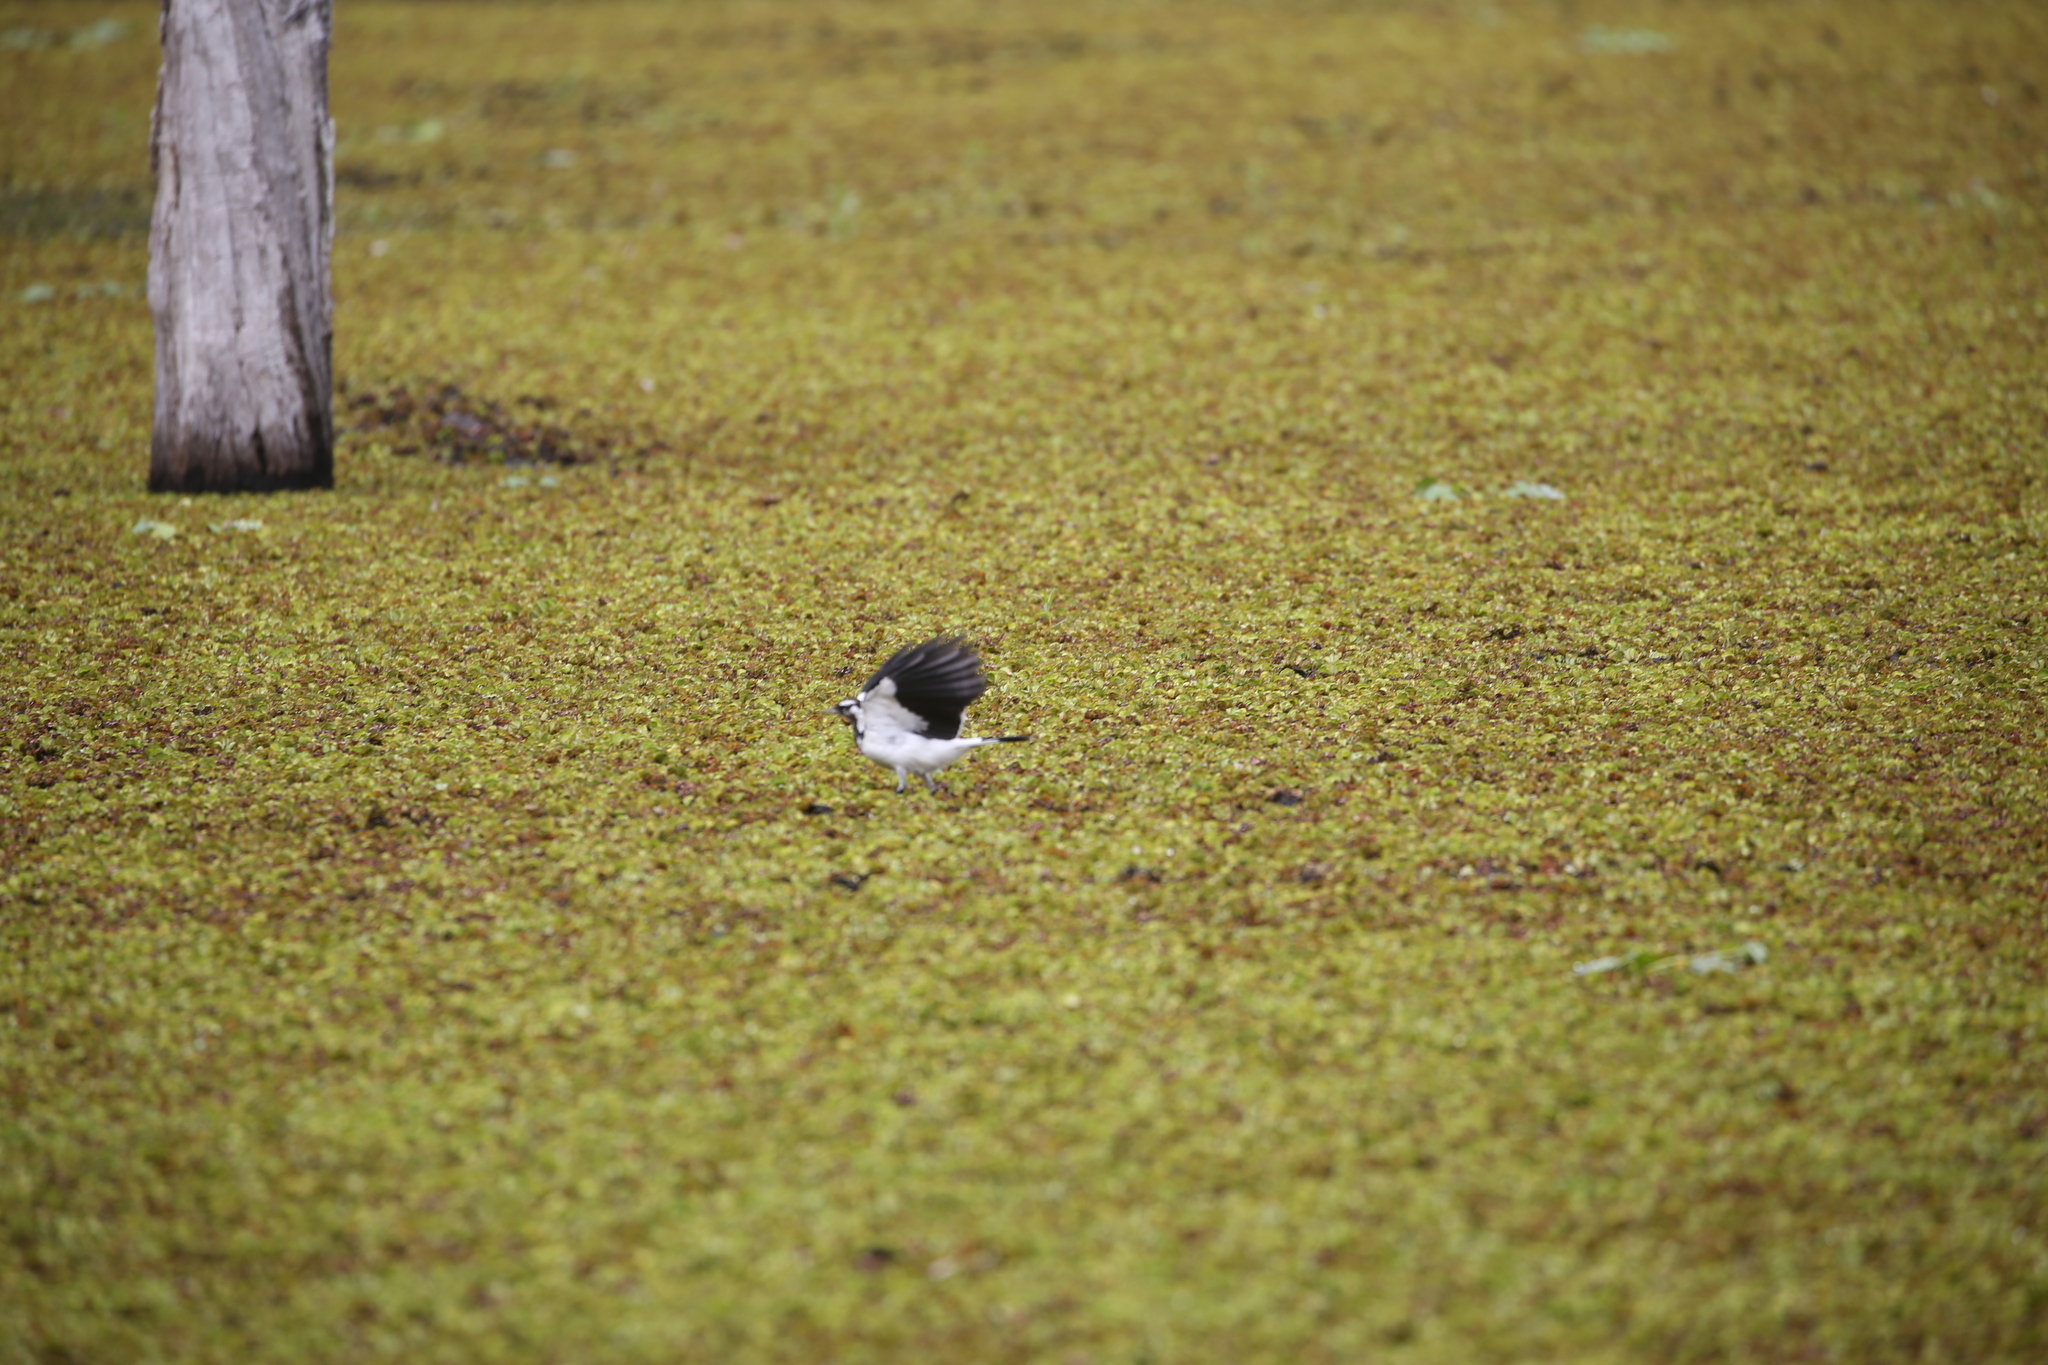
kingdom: Animalia
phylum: Chordata
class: Aves
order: Passeriformes
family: Monarchidae
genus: Grallina
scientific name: Grallina cyanoleuca
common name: Magpie-lark
